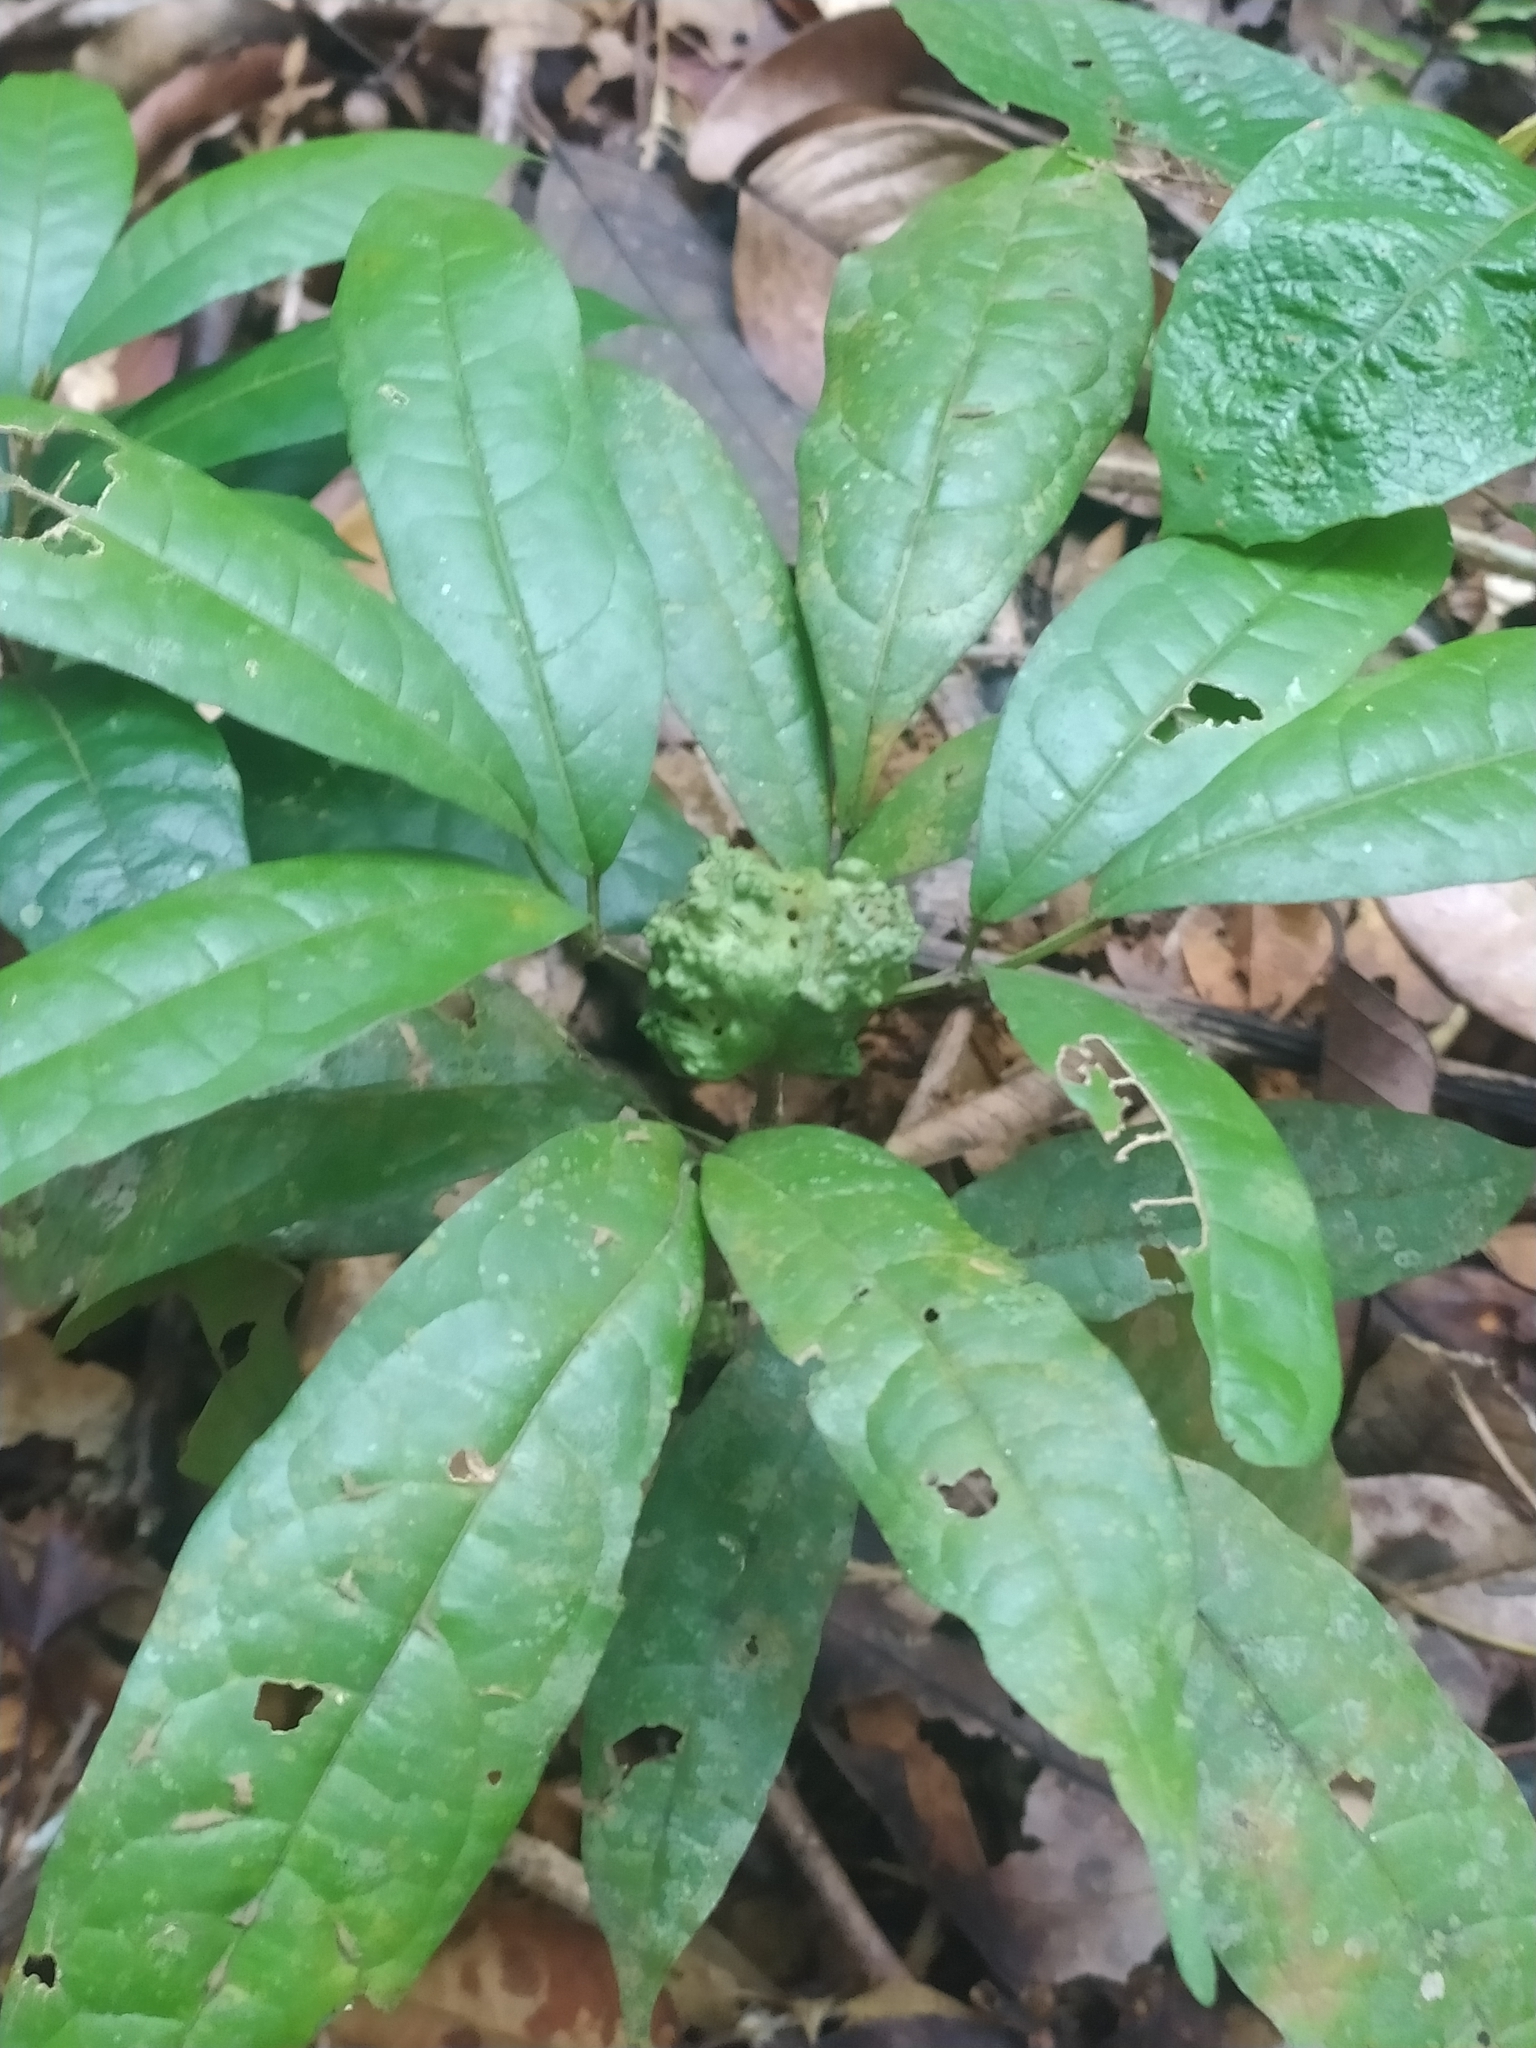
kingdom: Plantae
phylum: Tracheophyta
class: Magnoliopsida
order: Lamiales
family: Bignoniaceae
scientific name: Bignoniaceae
